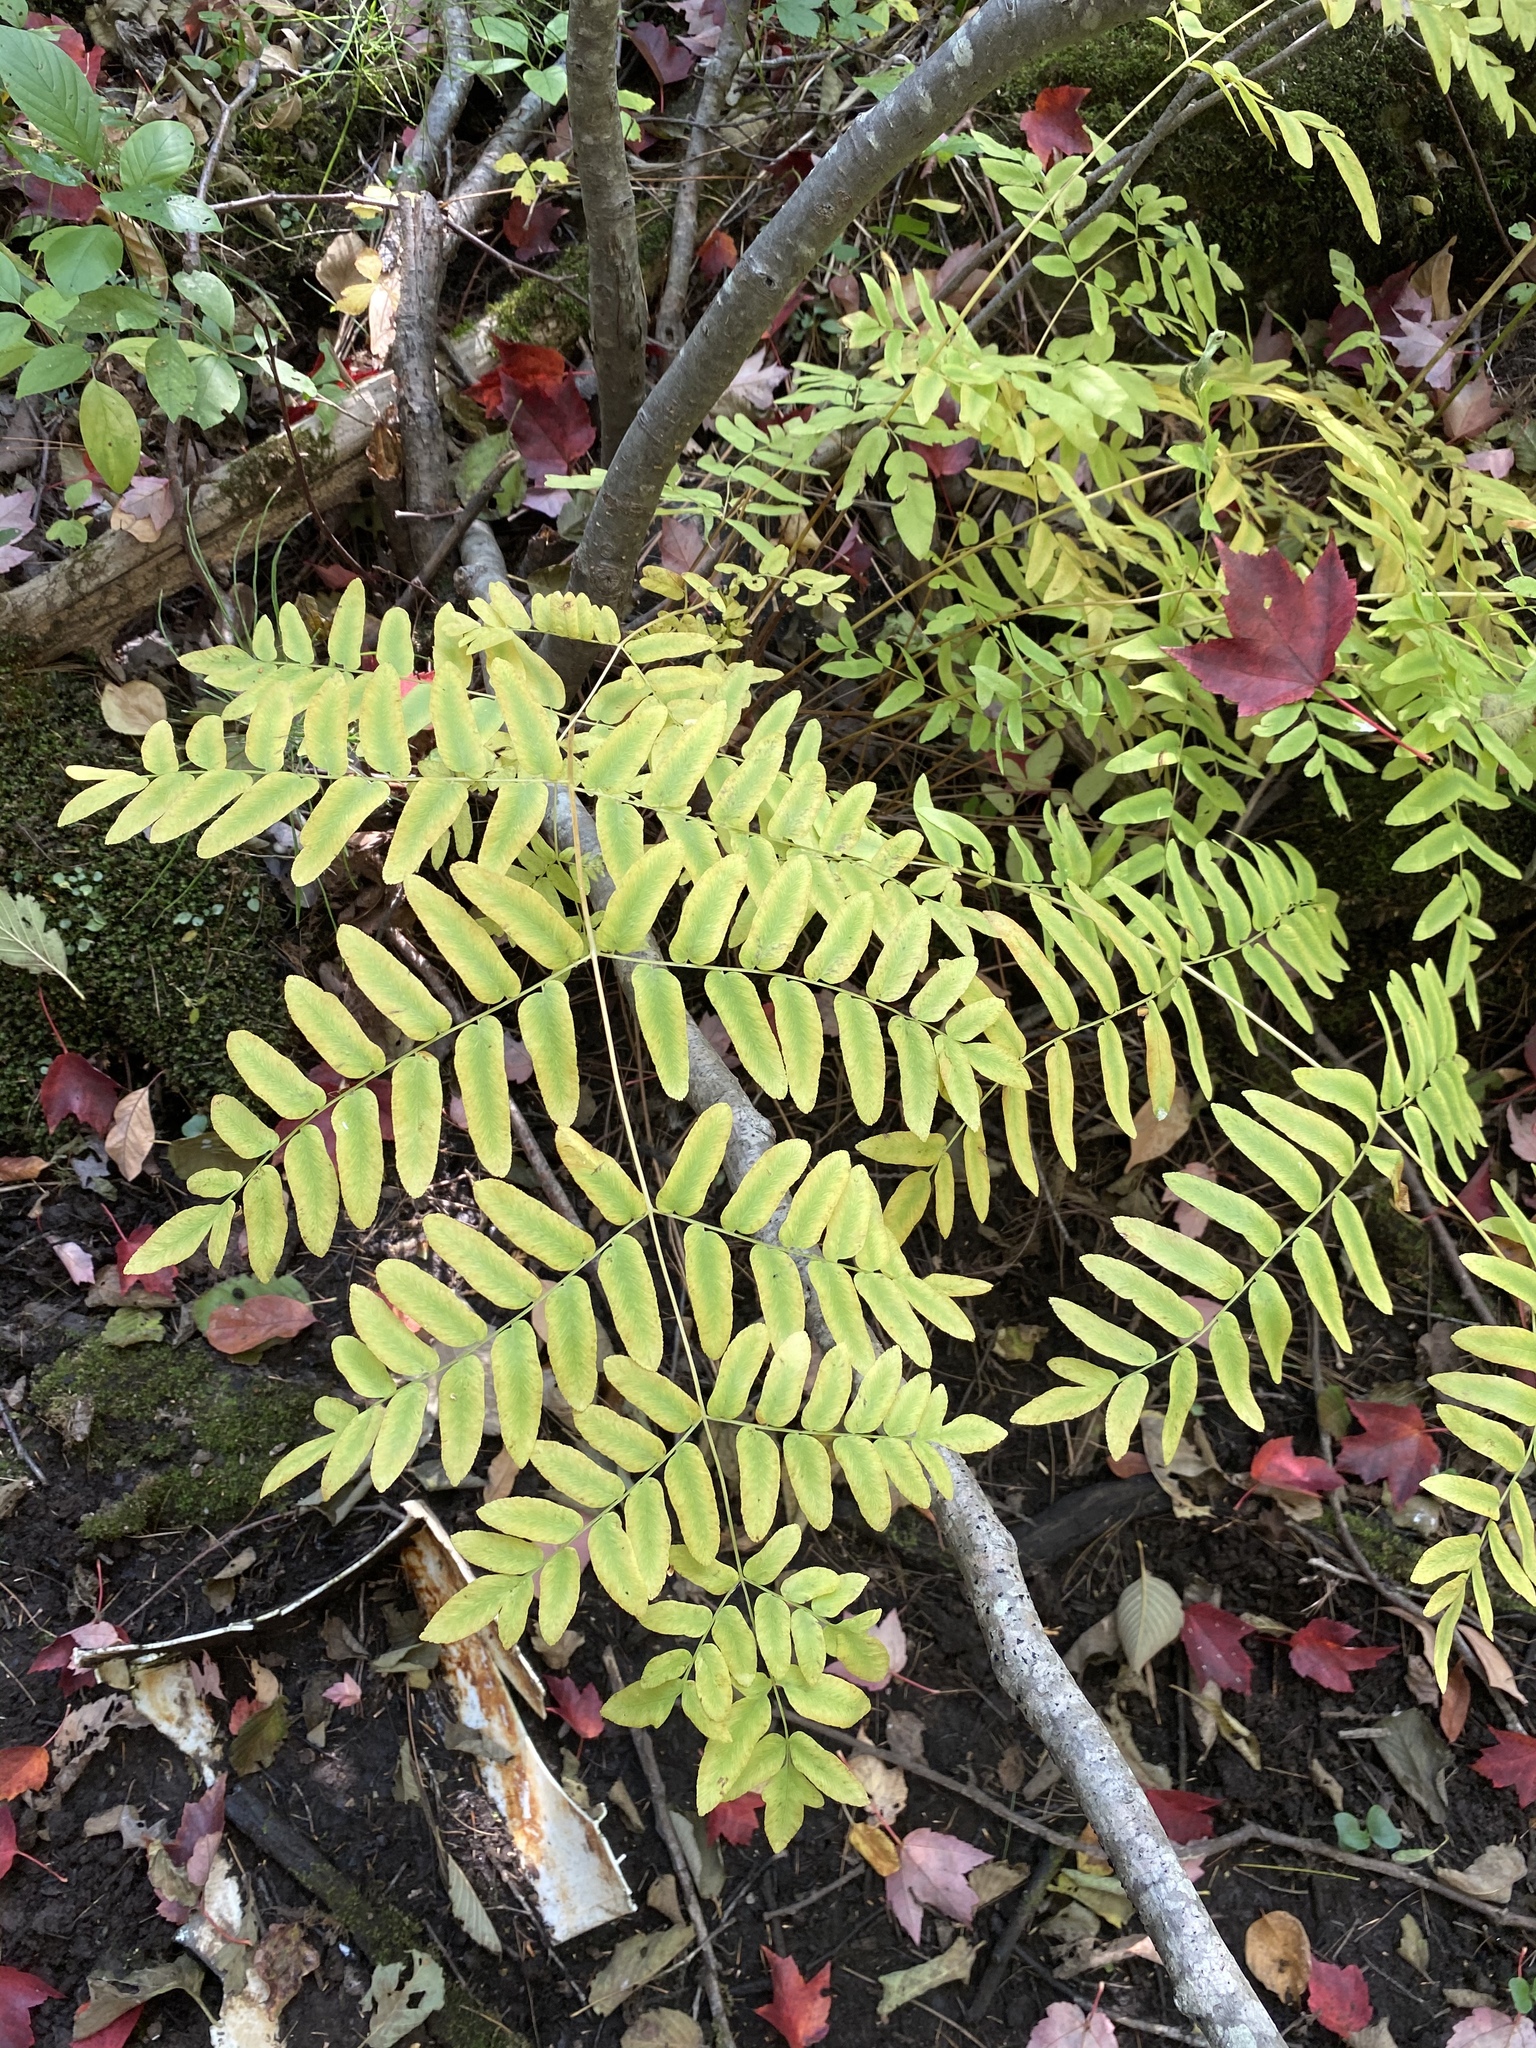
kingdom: Plantae
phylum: Tracheophyta
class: Polypodiopsida
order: Osmundales
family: Osmundaceae
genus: Osmunda
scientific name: Osmunda spectabilis
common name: American royal fern
